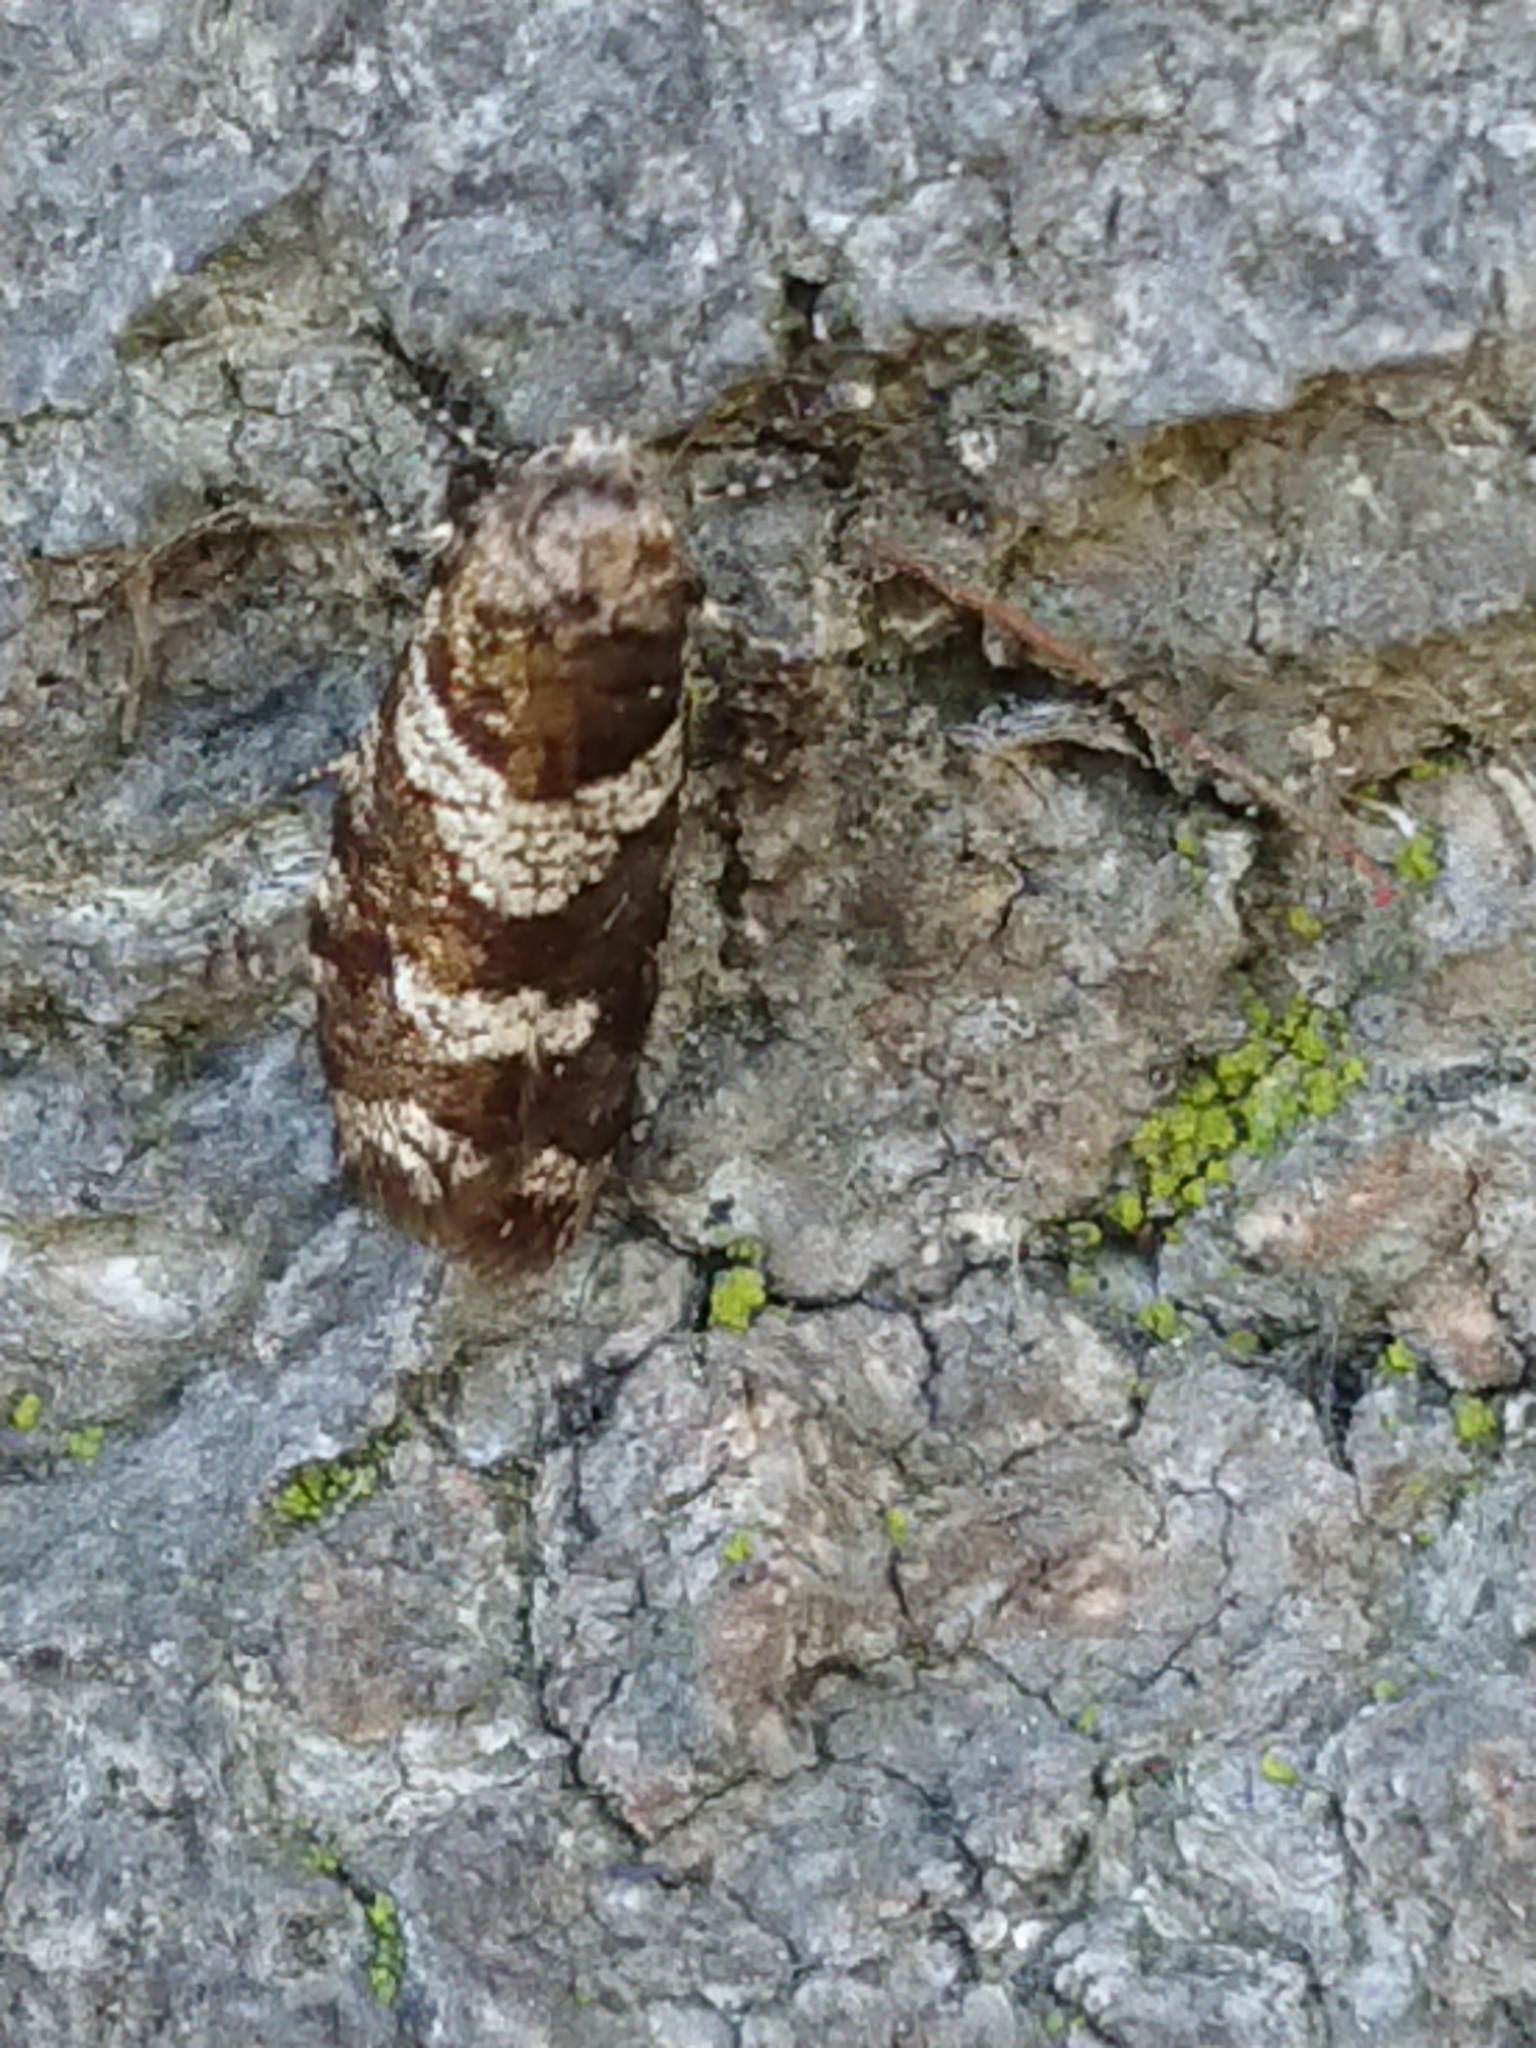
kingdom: Animalia
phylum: Arthropoda
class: Insecta
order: Lepidoptera
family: Psychidae
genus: Lepidoscia
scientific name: Lepidoscia heliochares
